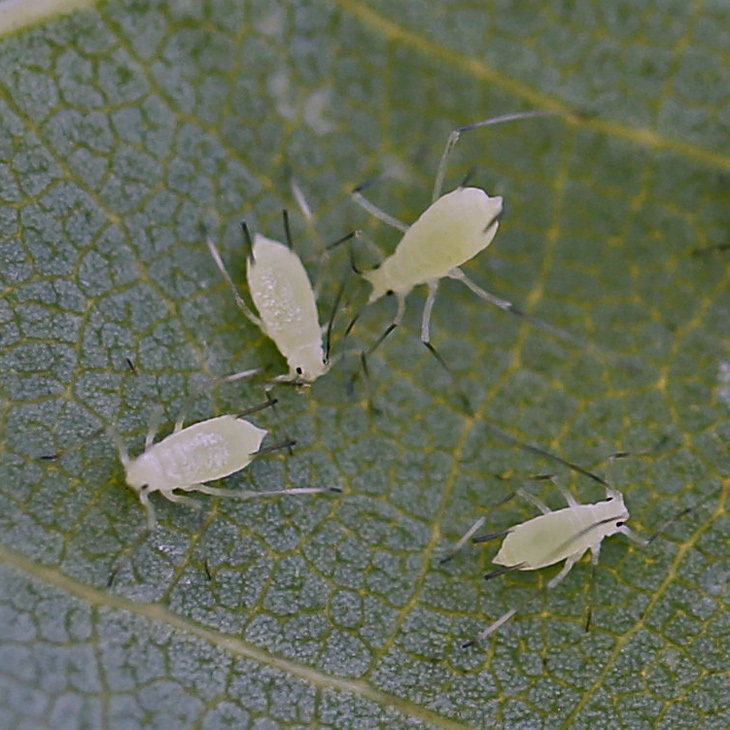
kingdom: Animalia
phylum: Arthropoda
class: Insecta
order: Hemiptera
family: Aphididae
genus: Illinoia
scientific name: Illinoia liriodendri
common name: Tuliptree aphid
